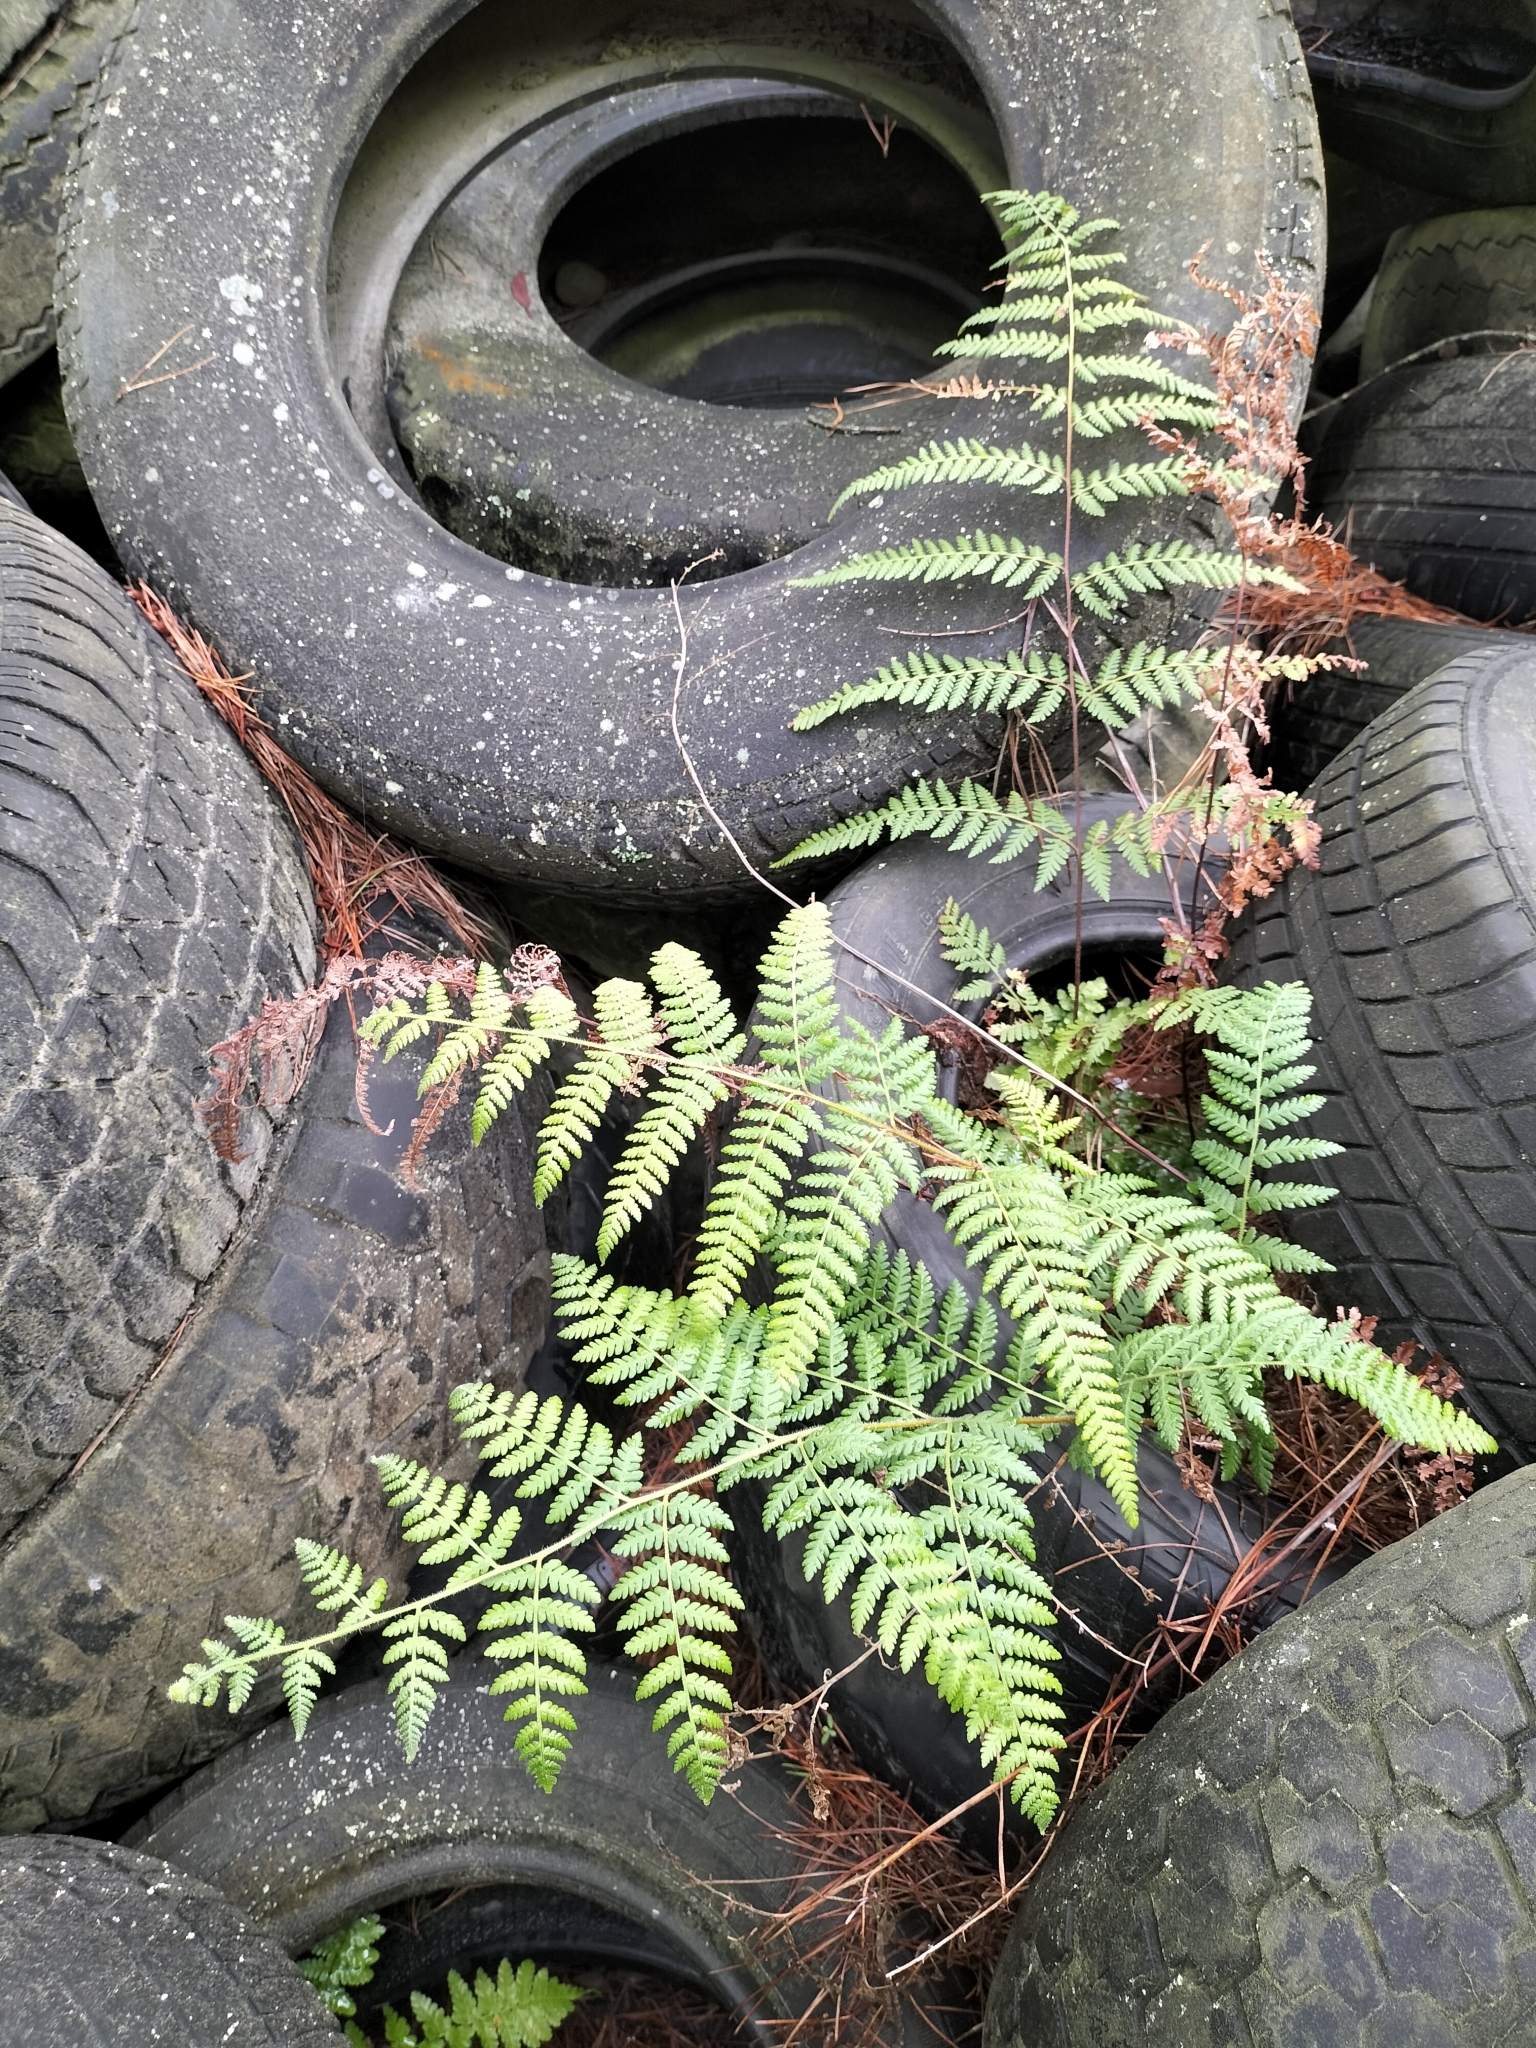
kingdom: Plantae
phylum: Tracheophyta
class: Polypodiopsida
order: Polypodiales
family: Dennstaedtiaceae
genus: Hypolepis
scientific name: Hypolepis ambigua
